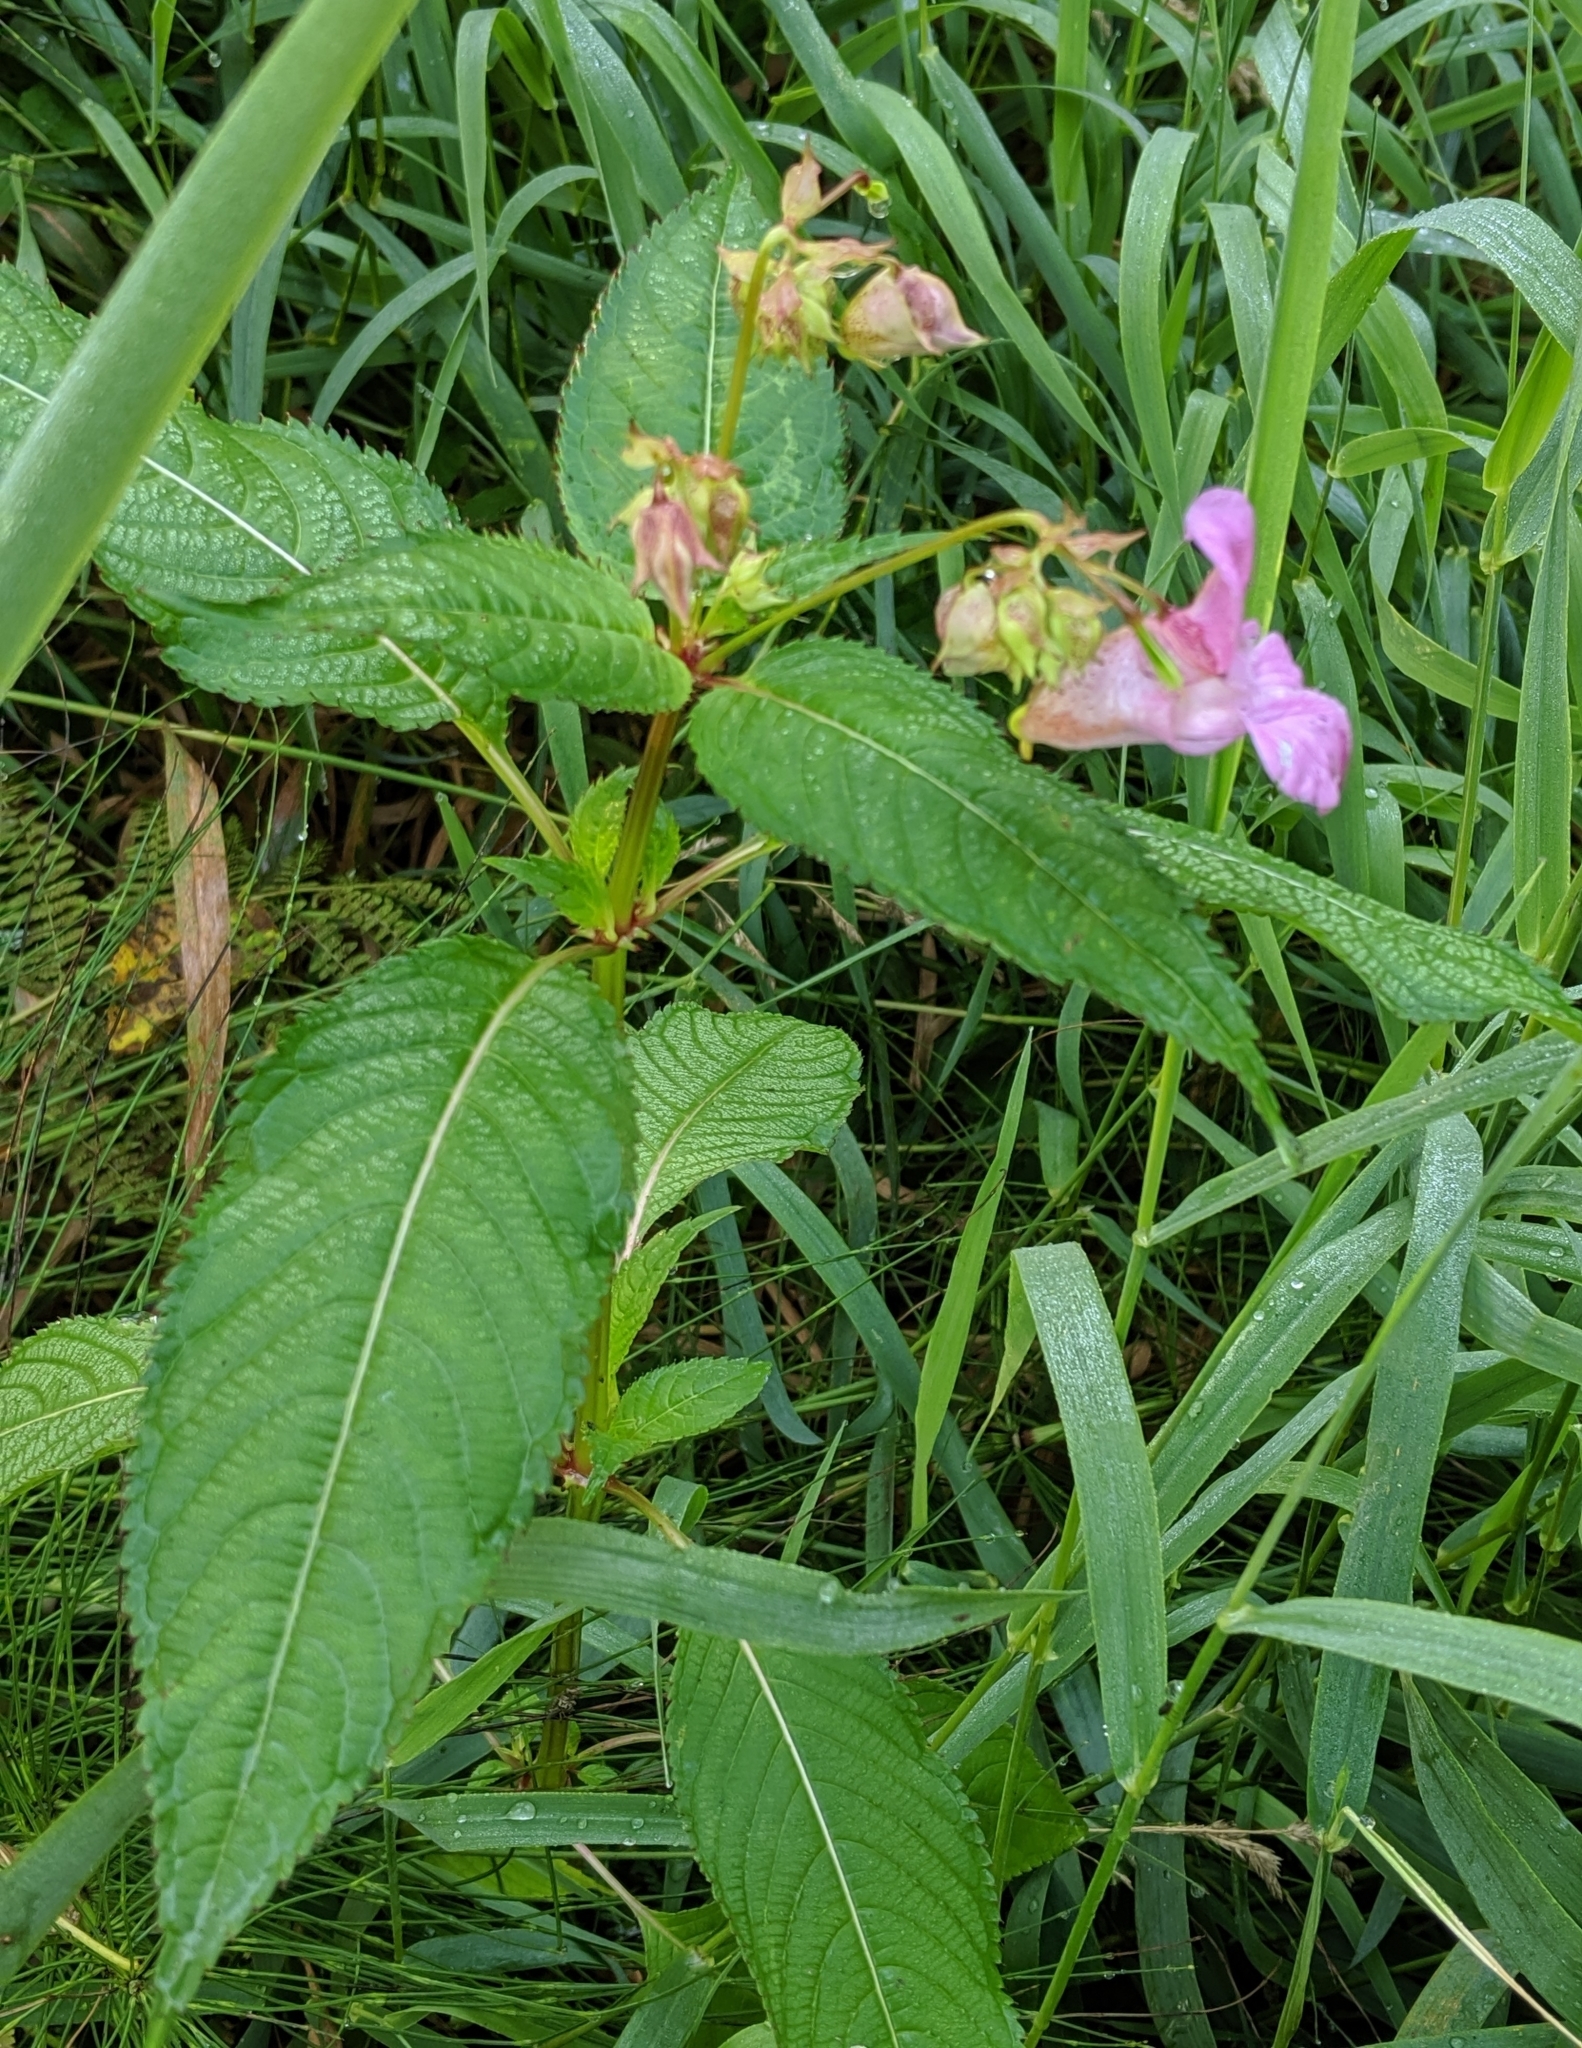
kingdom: Plantae
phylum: Tracheophyta
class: Magnoliopsida
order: Ericales
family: Balsaminaceae
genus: Impatiens
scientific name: Impatiens glandulifera
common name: Himalayan balsam
